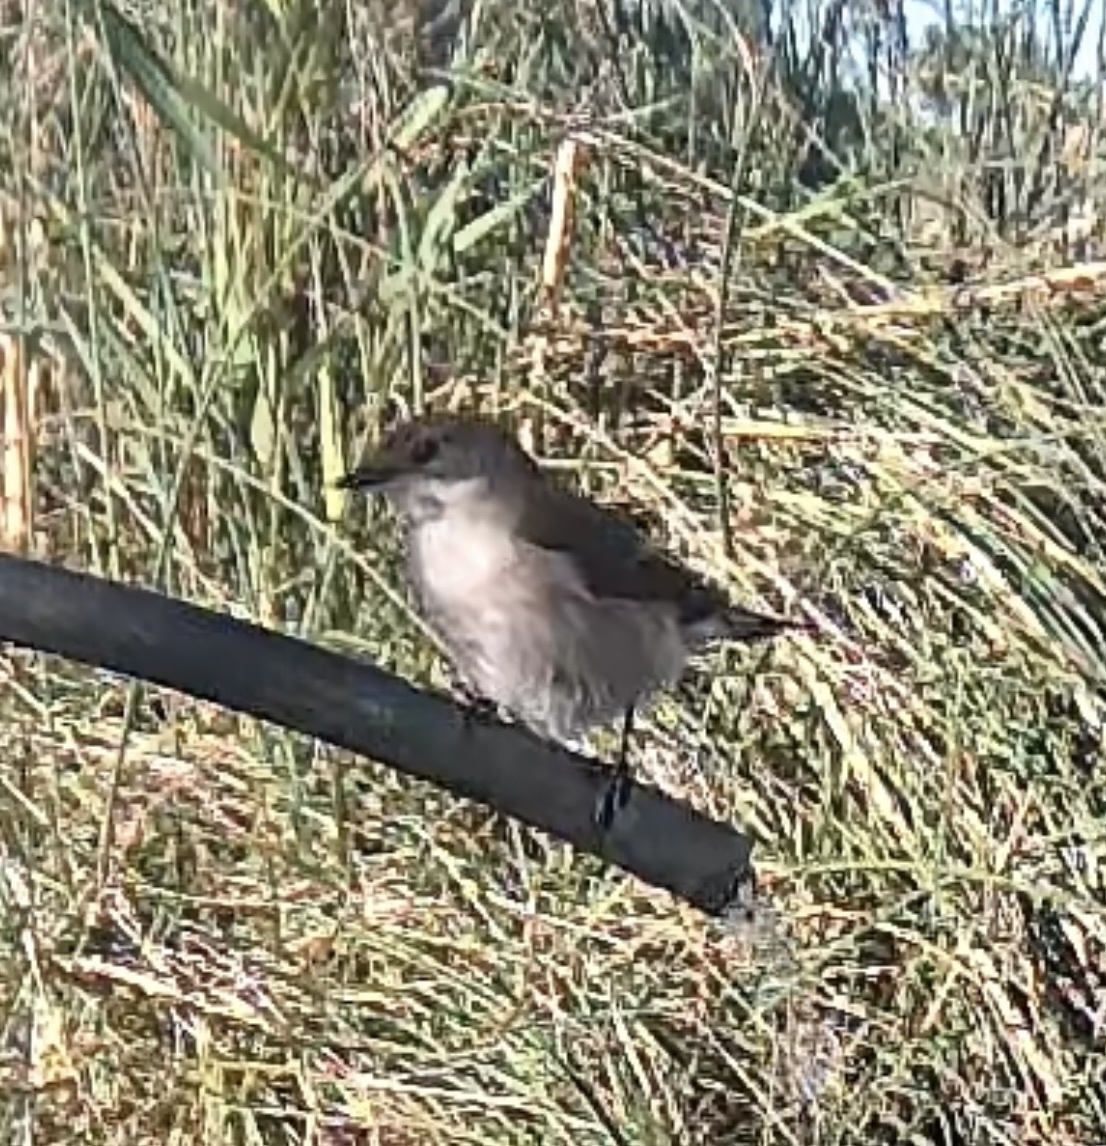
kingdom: Animalia
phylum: Chordata
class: Aves
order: Passeriformes
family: Muscicapidae
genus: Ficedula
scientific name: Ficedula hypoleuca
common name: European pied flycatcher
